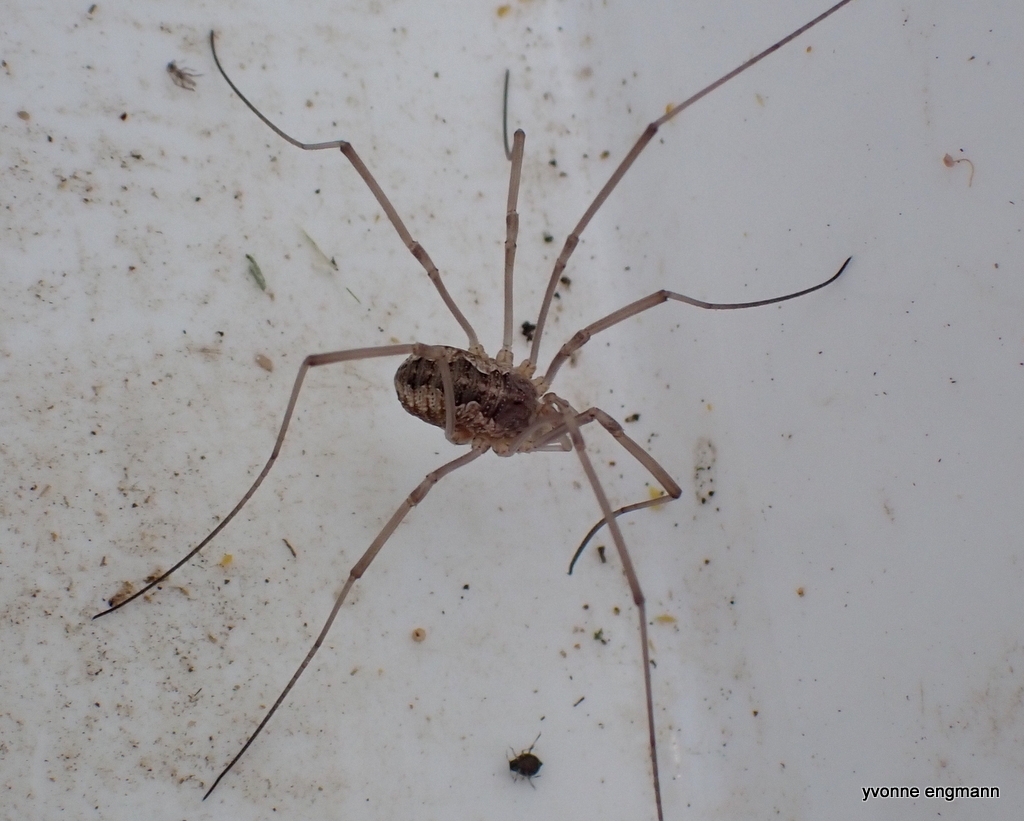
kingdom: Animalia
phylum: Arthropoda
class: Arachnida
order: Opiliones
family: Phalangiidae
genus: Phalangium
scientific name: Phalangium opilio
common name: Daddy longleg
